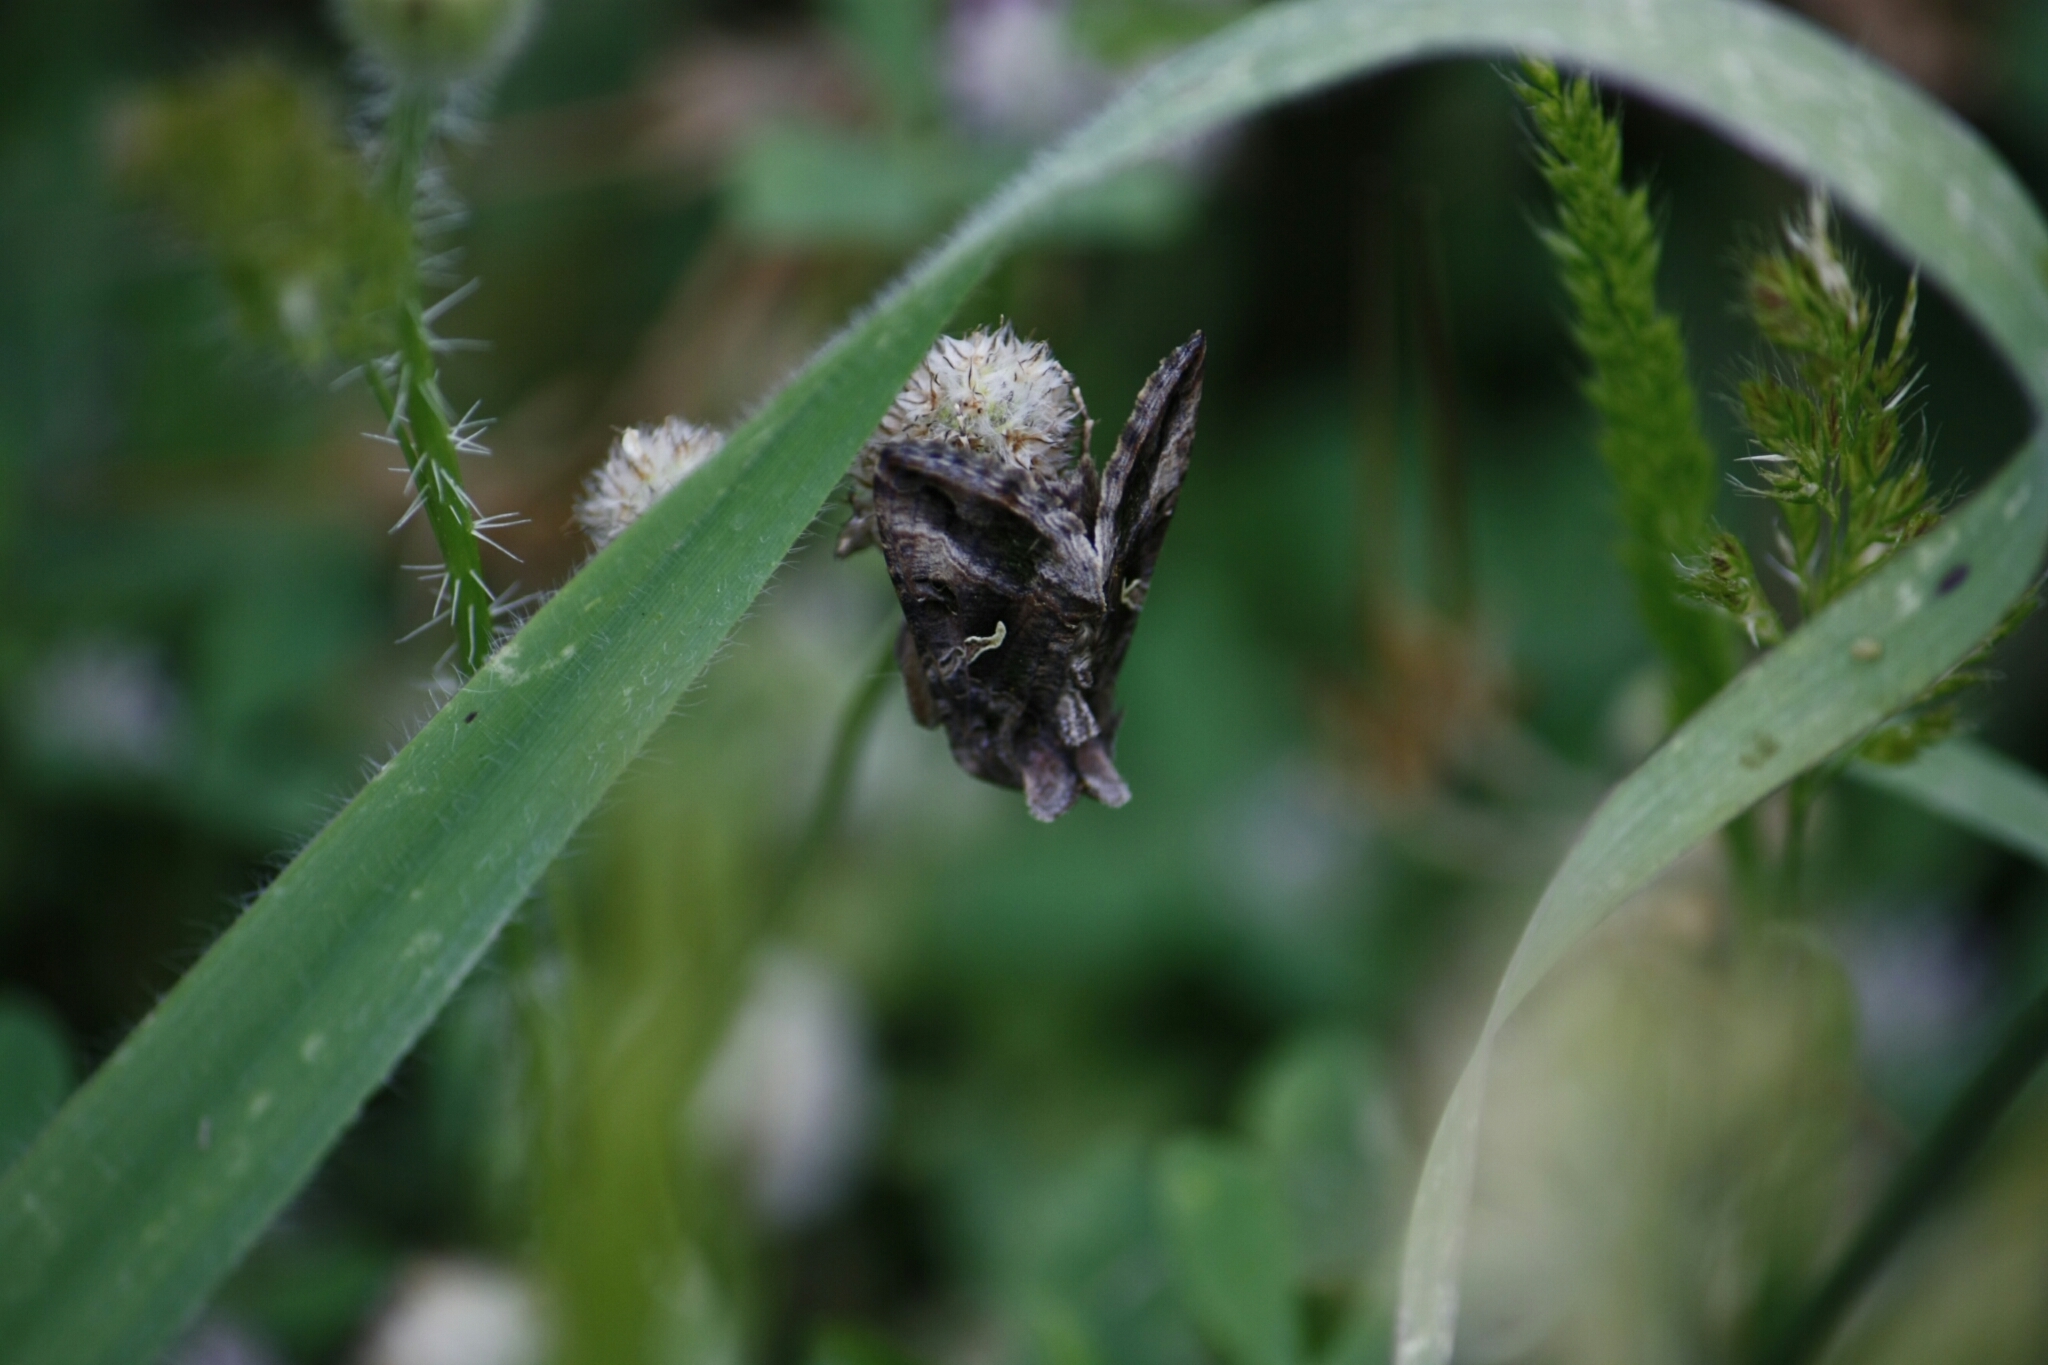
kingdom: Animalia
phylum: Arthropoda
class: Insecta
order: Lepidoptera
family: Noctuidae
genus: Autographa
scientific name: Autographa gamma
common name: Silver y
